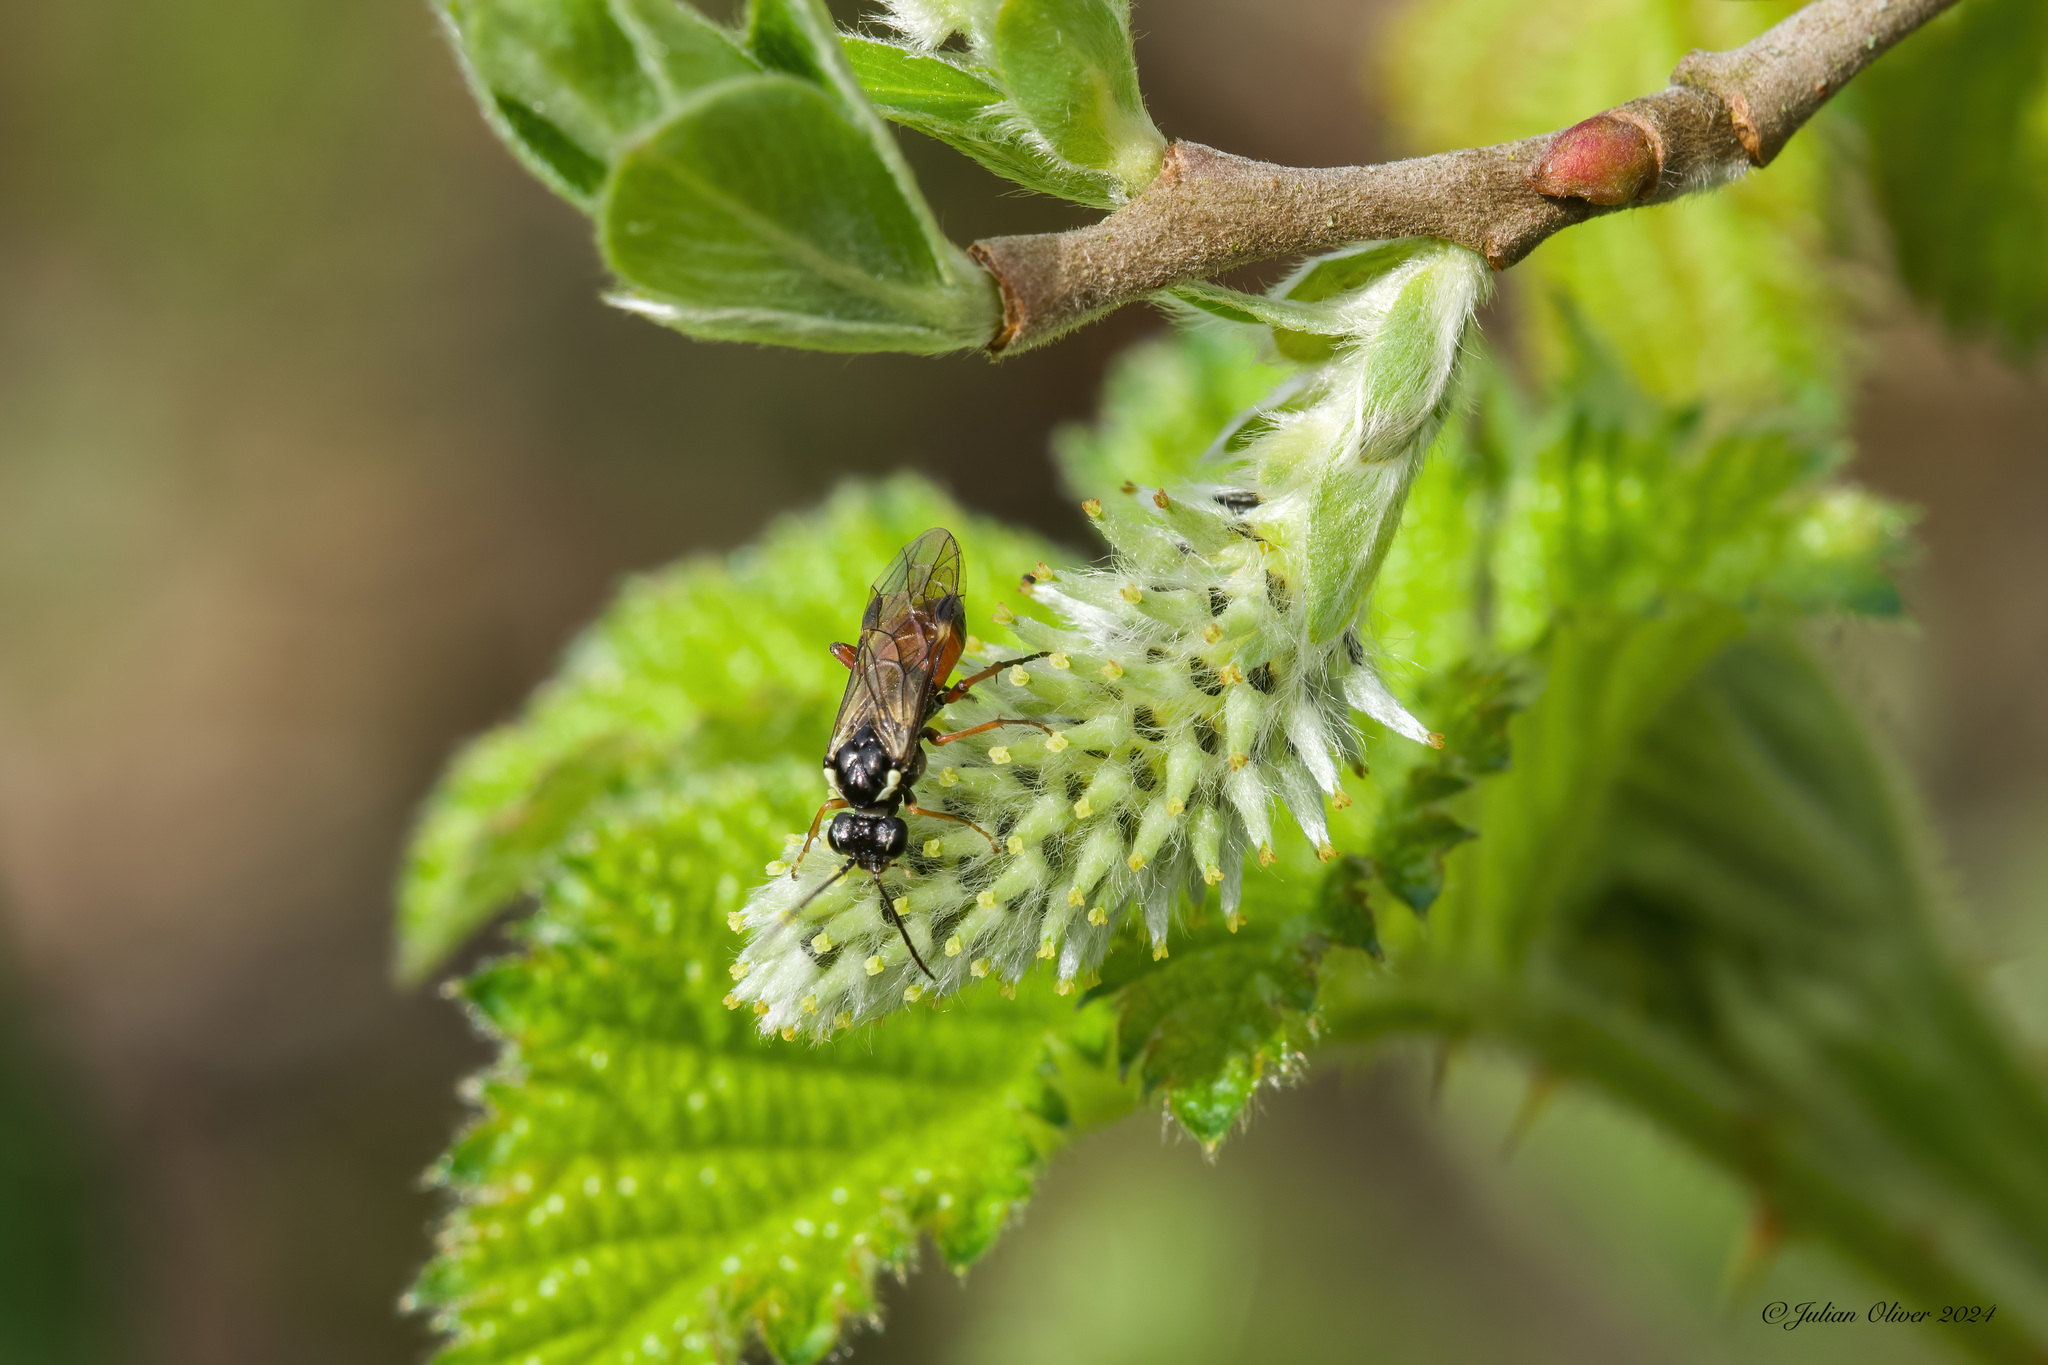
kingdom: Animalia
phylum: Arthropoda
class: Insecta
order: Hymenoptera
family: Tenthredinidae
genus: Aglaostigma
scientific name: Aglaostigma aucupariae
